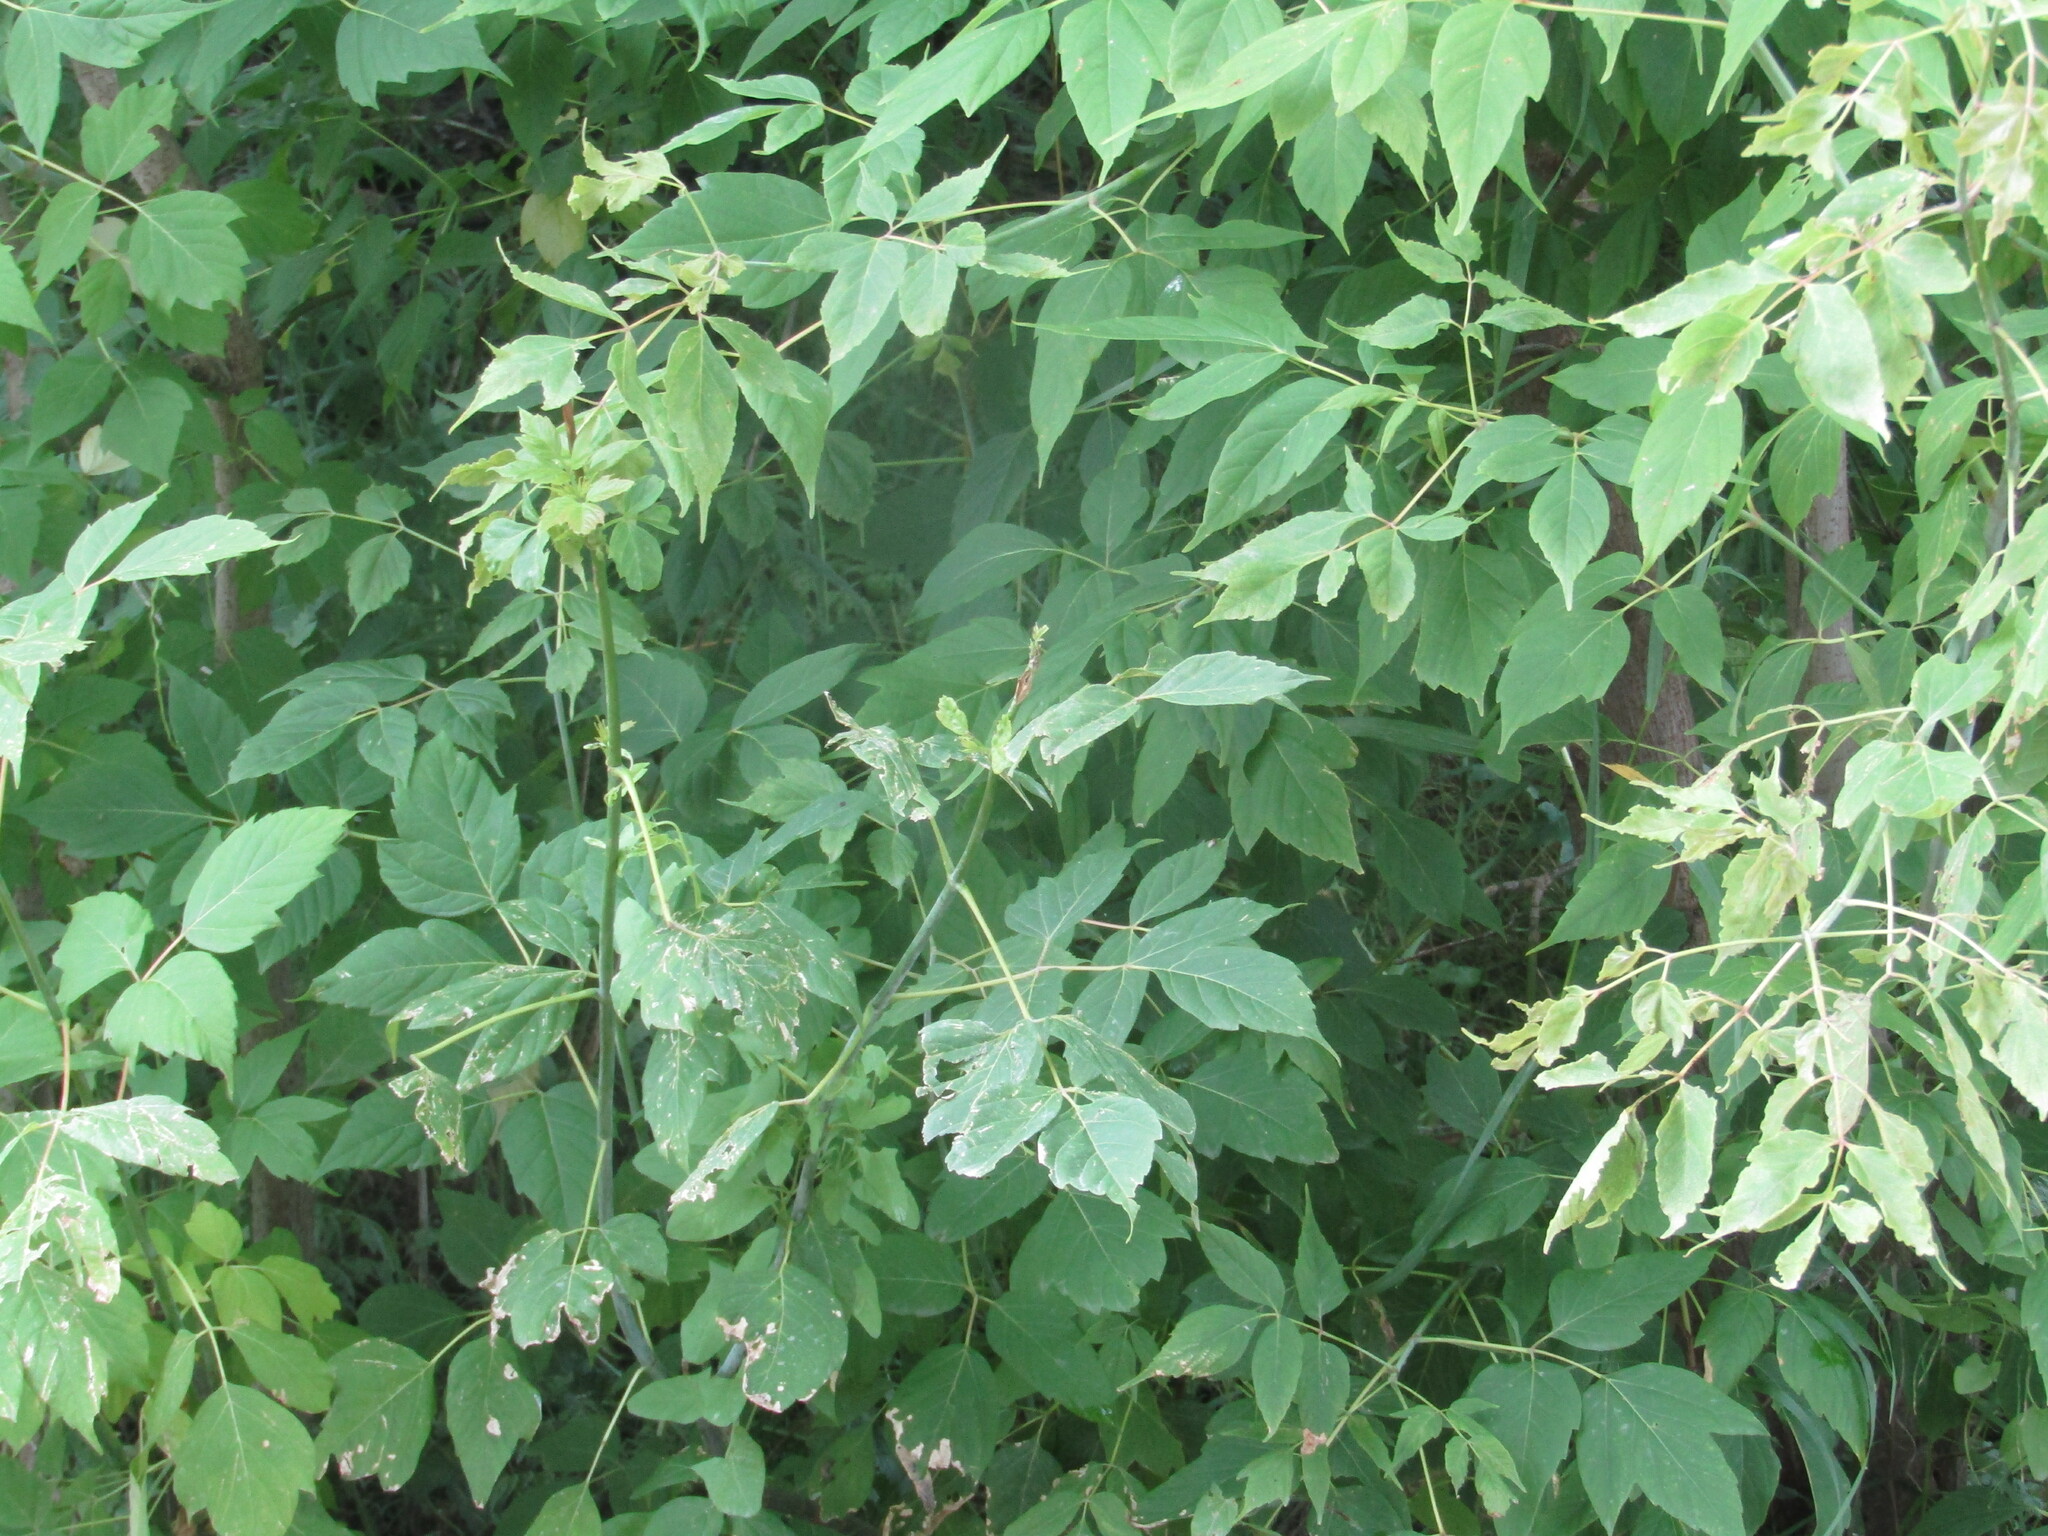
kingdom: Plantae
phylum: Tracheophyta
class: Magnoliopsida
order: Sapindales
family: Sapindaceae
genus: Acer
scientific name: Acer negundo
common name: Ashleaf maple
